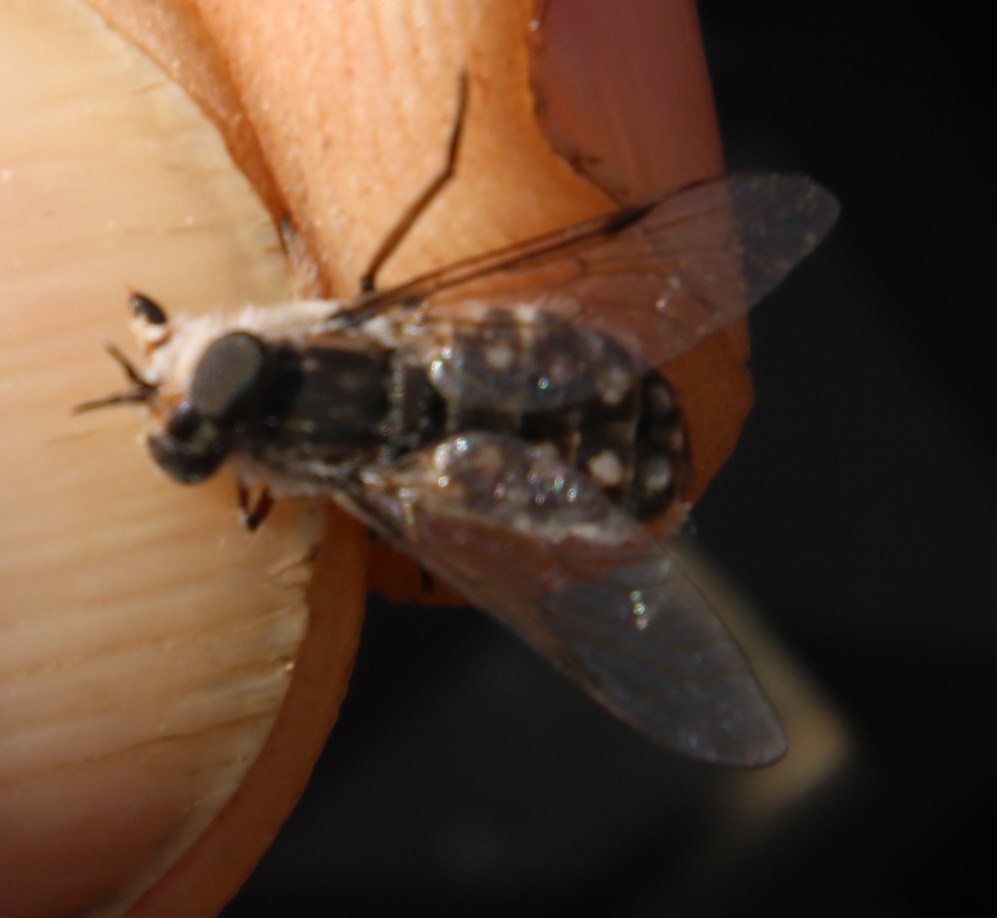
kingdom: Animalia
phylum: Arthropoda
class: Insecta
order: Diptera
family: Tabanidae
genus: Rhigioglossa
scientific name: Rhigioglossa decora
